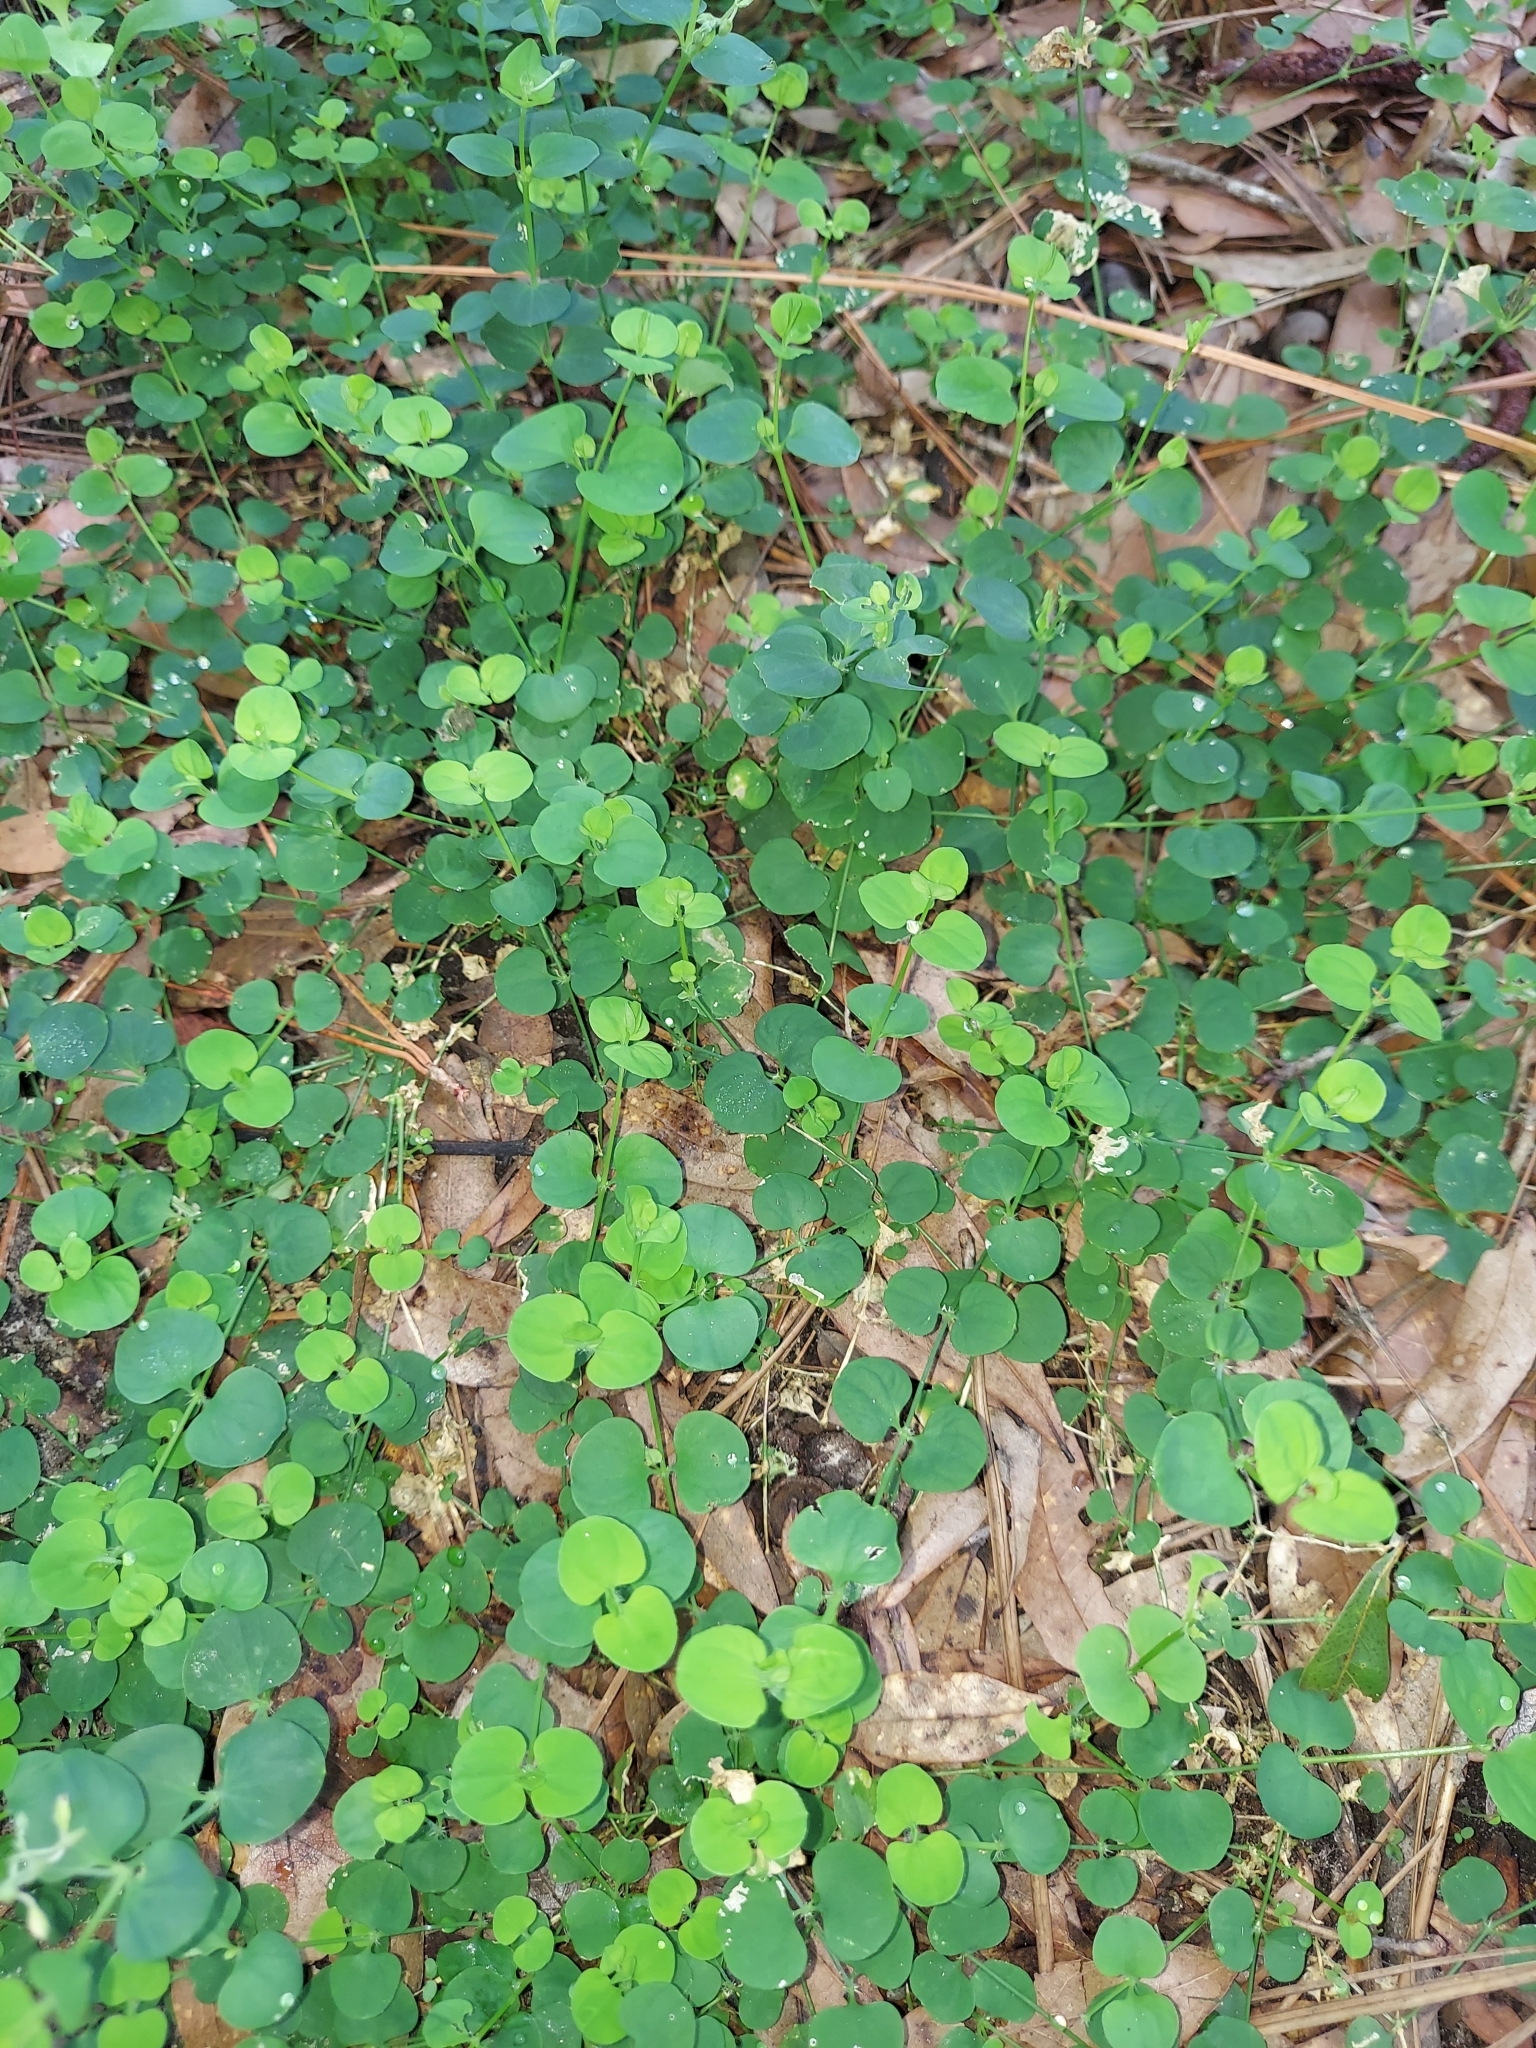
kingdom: Plantae
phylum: Tracheophyta
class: Magnoliopsida
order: Caryophyllales
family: Caryophyllaceae
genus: Drymaria
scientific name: Drymaria cordata
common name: Whitesnow
